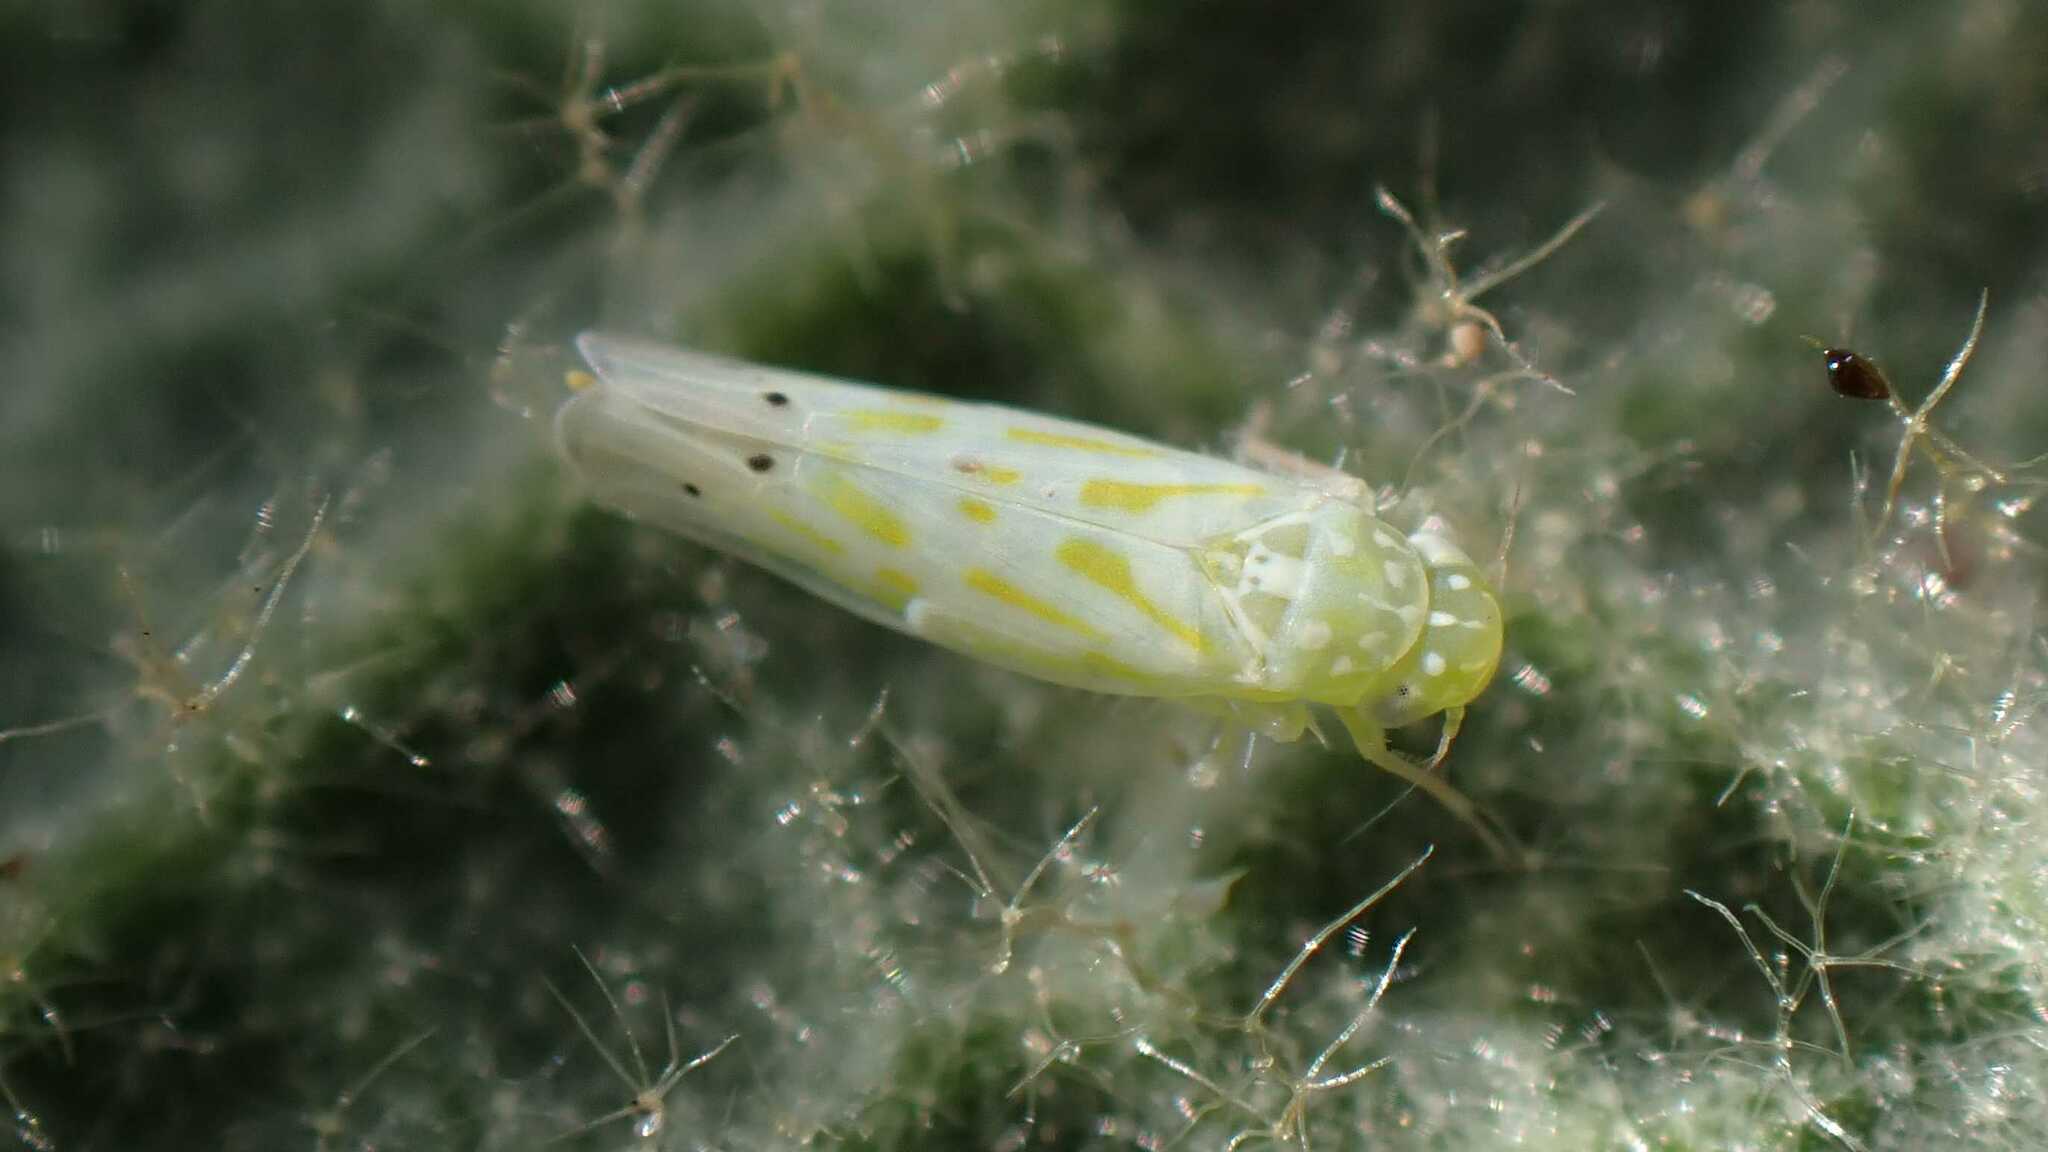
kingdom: Animalia
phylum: Arthropoda
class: Insecta
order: Hemiptera
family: Cicadellidae
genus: Micantulina
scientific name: Micantulina stigmatipennis
